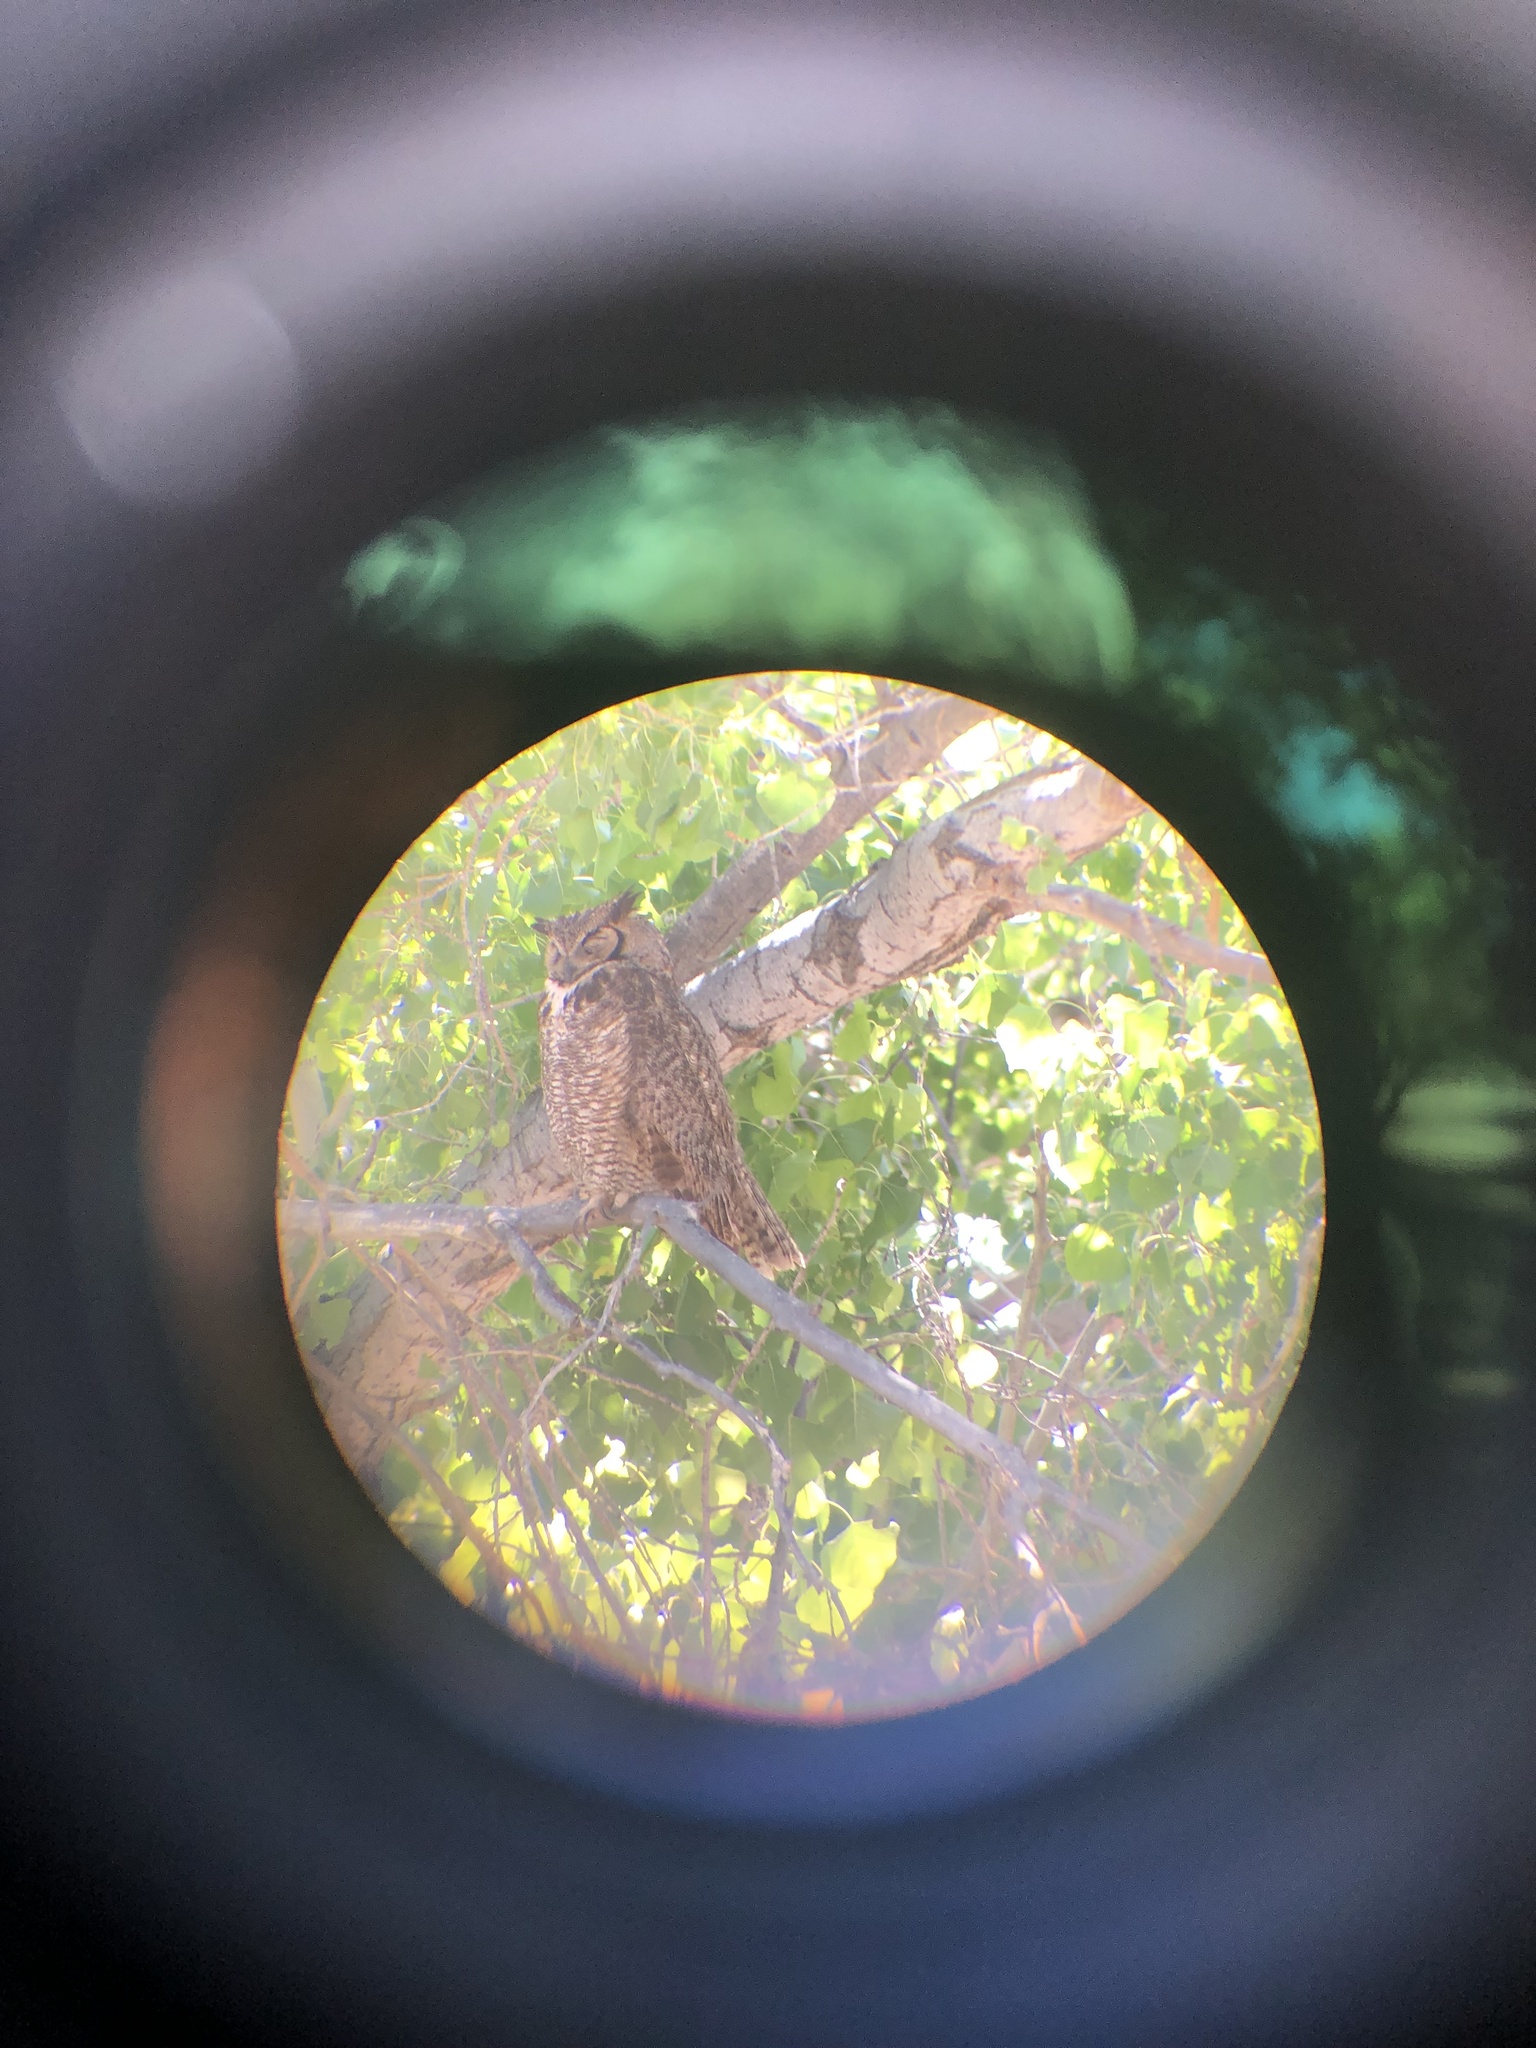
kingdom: Animalia
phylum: Chordata
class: Aves
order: Strigiformes
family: Strigidae
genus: Bubo
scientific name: Bubo virginianus
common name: Great horned owl
